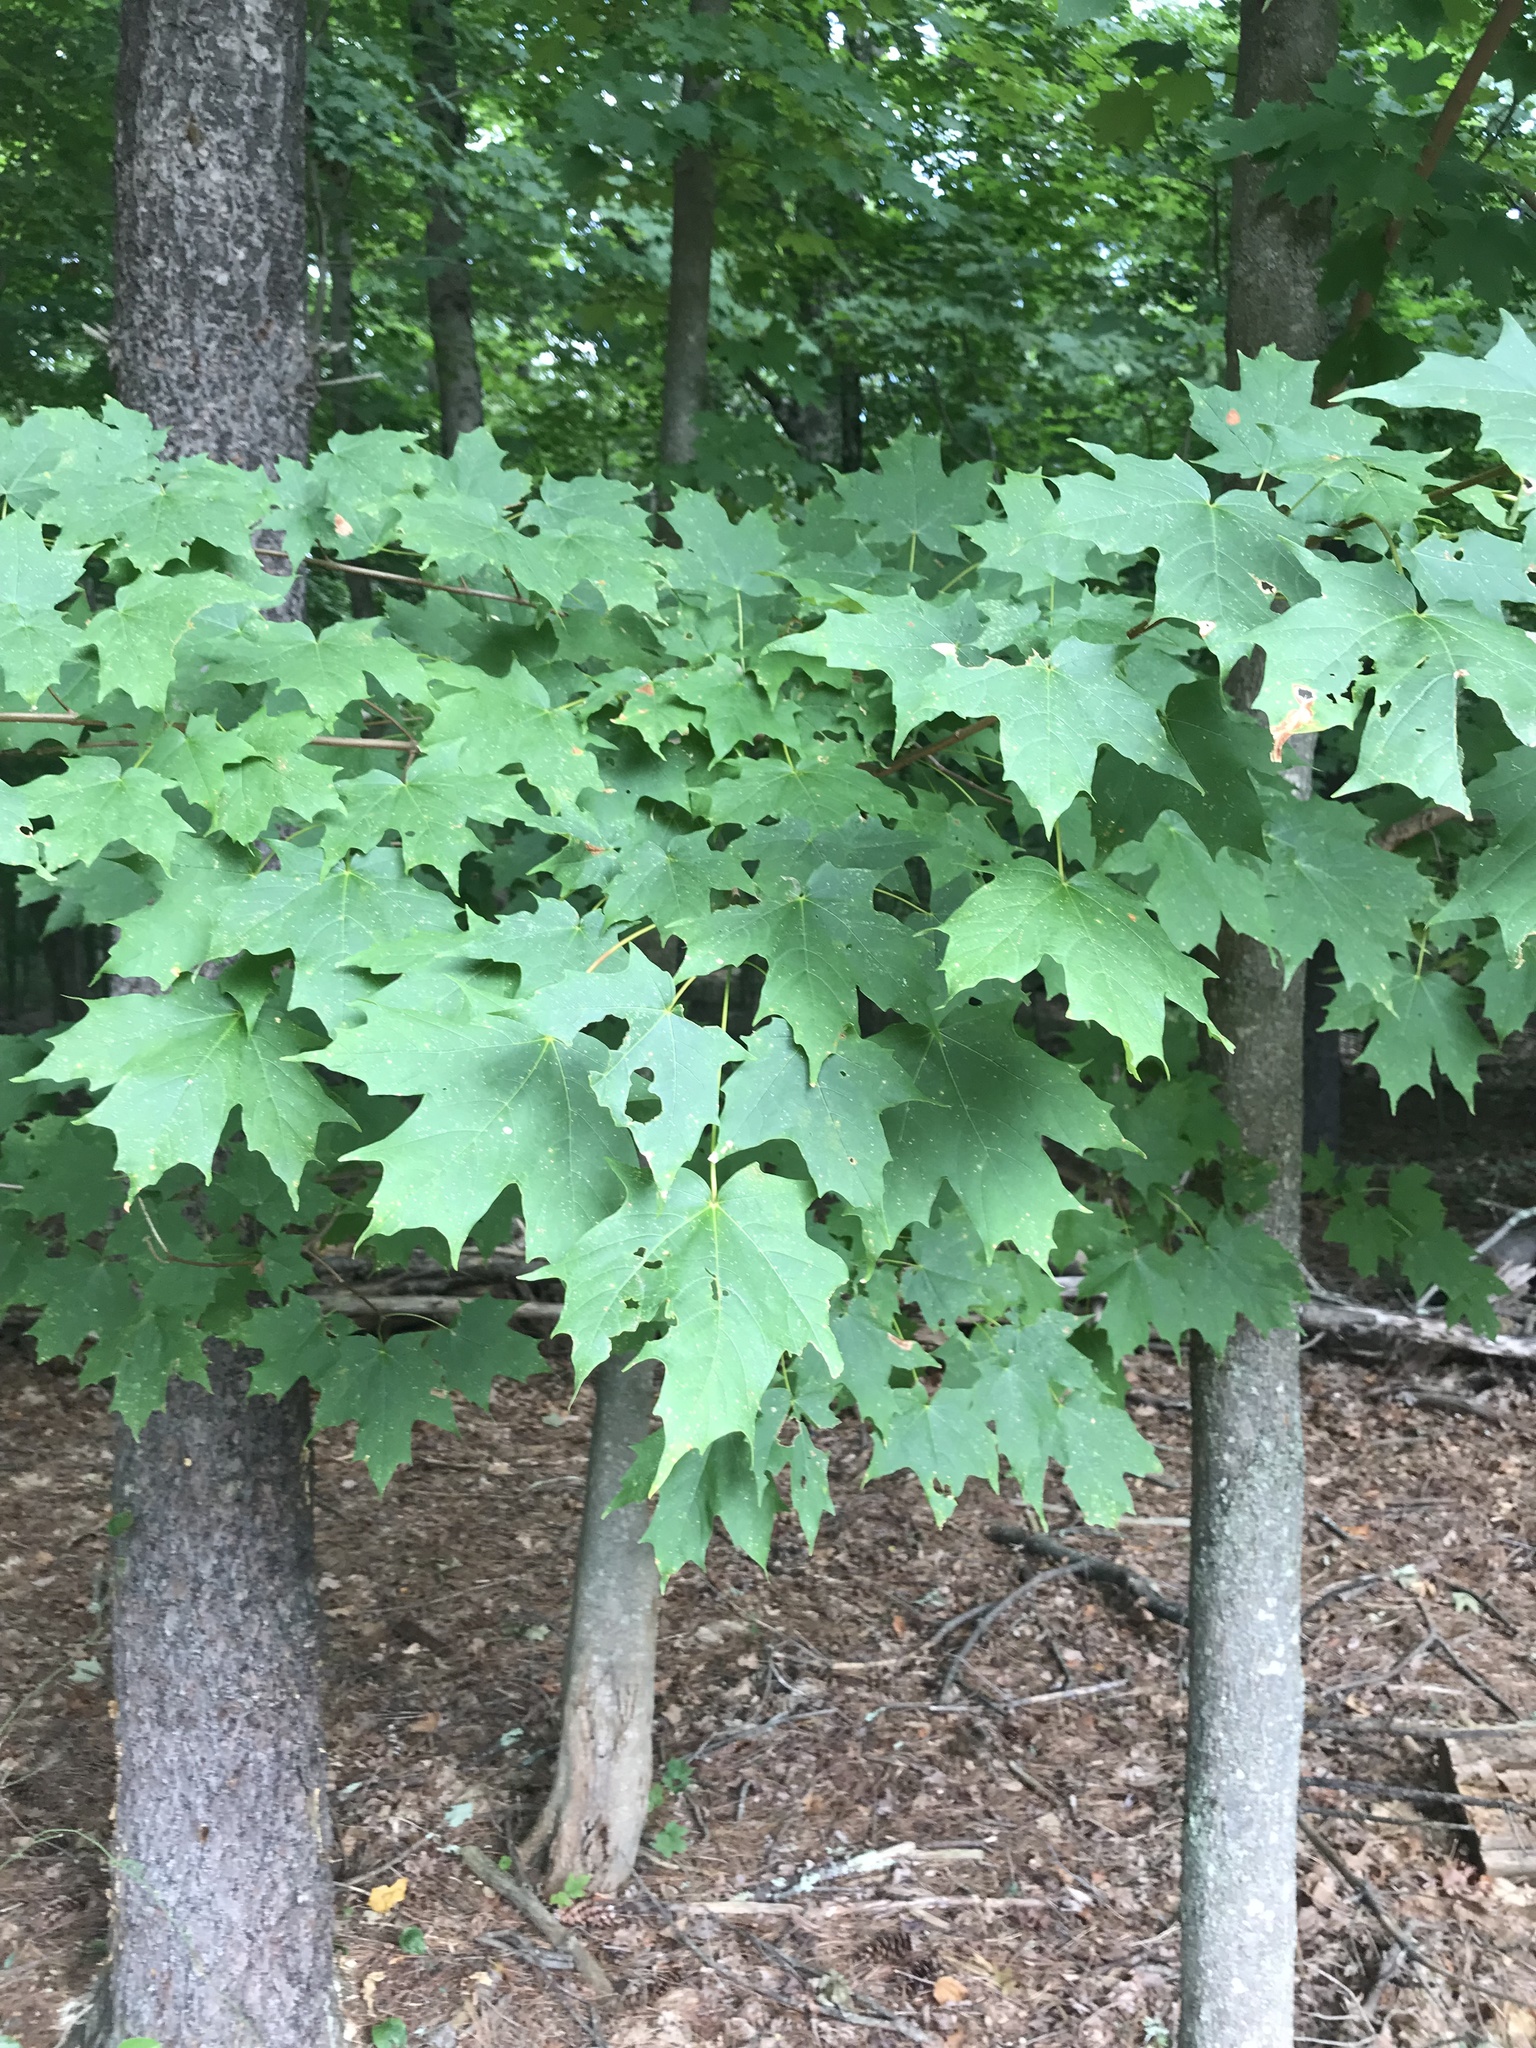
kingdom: Plantae
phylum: Tracheophyta
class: Magnoliopsida
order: Sapindales
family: Sapindaceae
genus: Acer
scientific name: Acer saccharum
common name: Sugar maple
